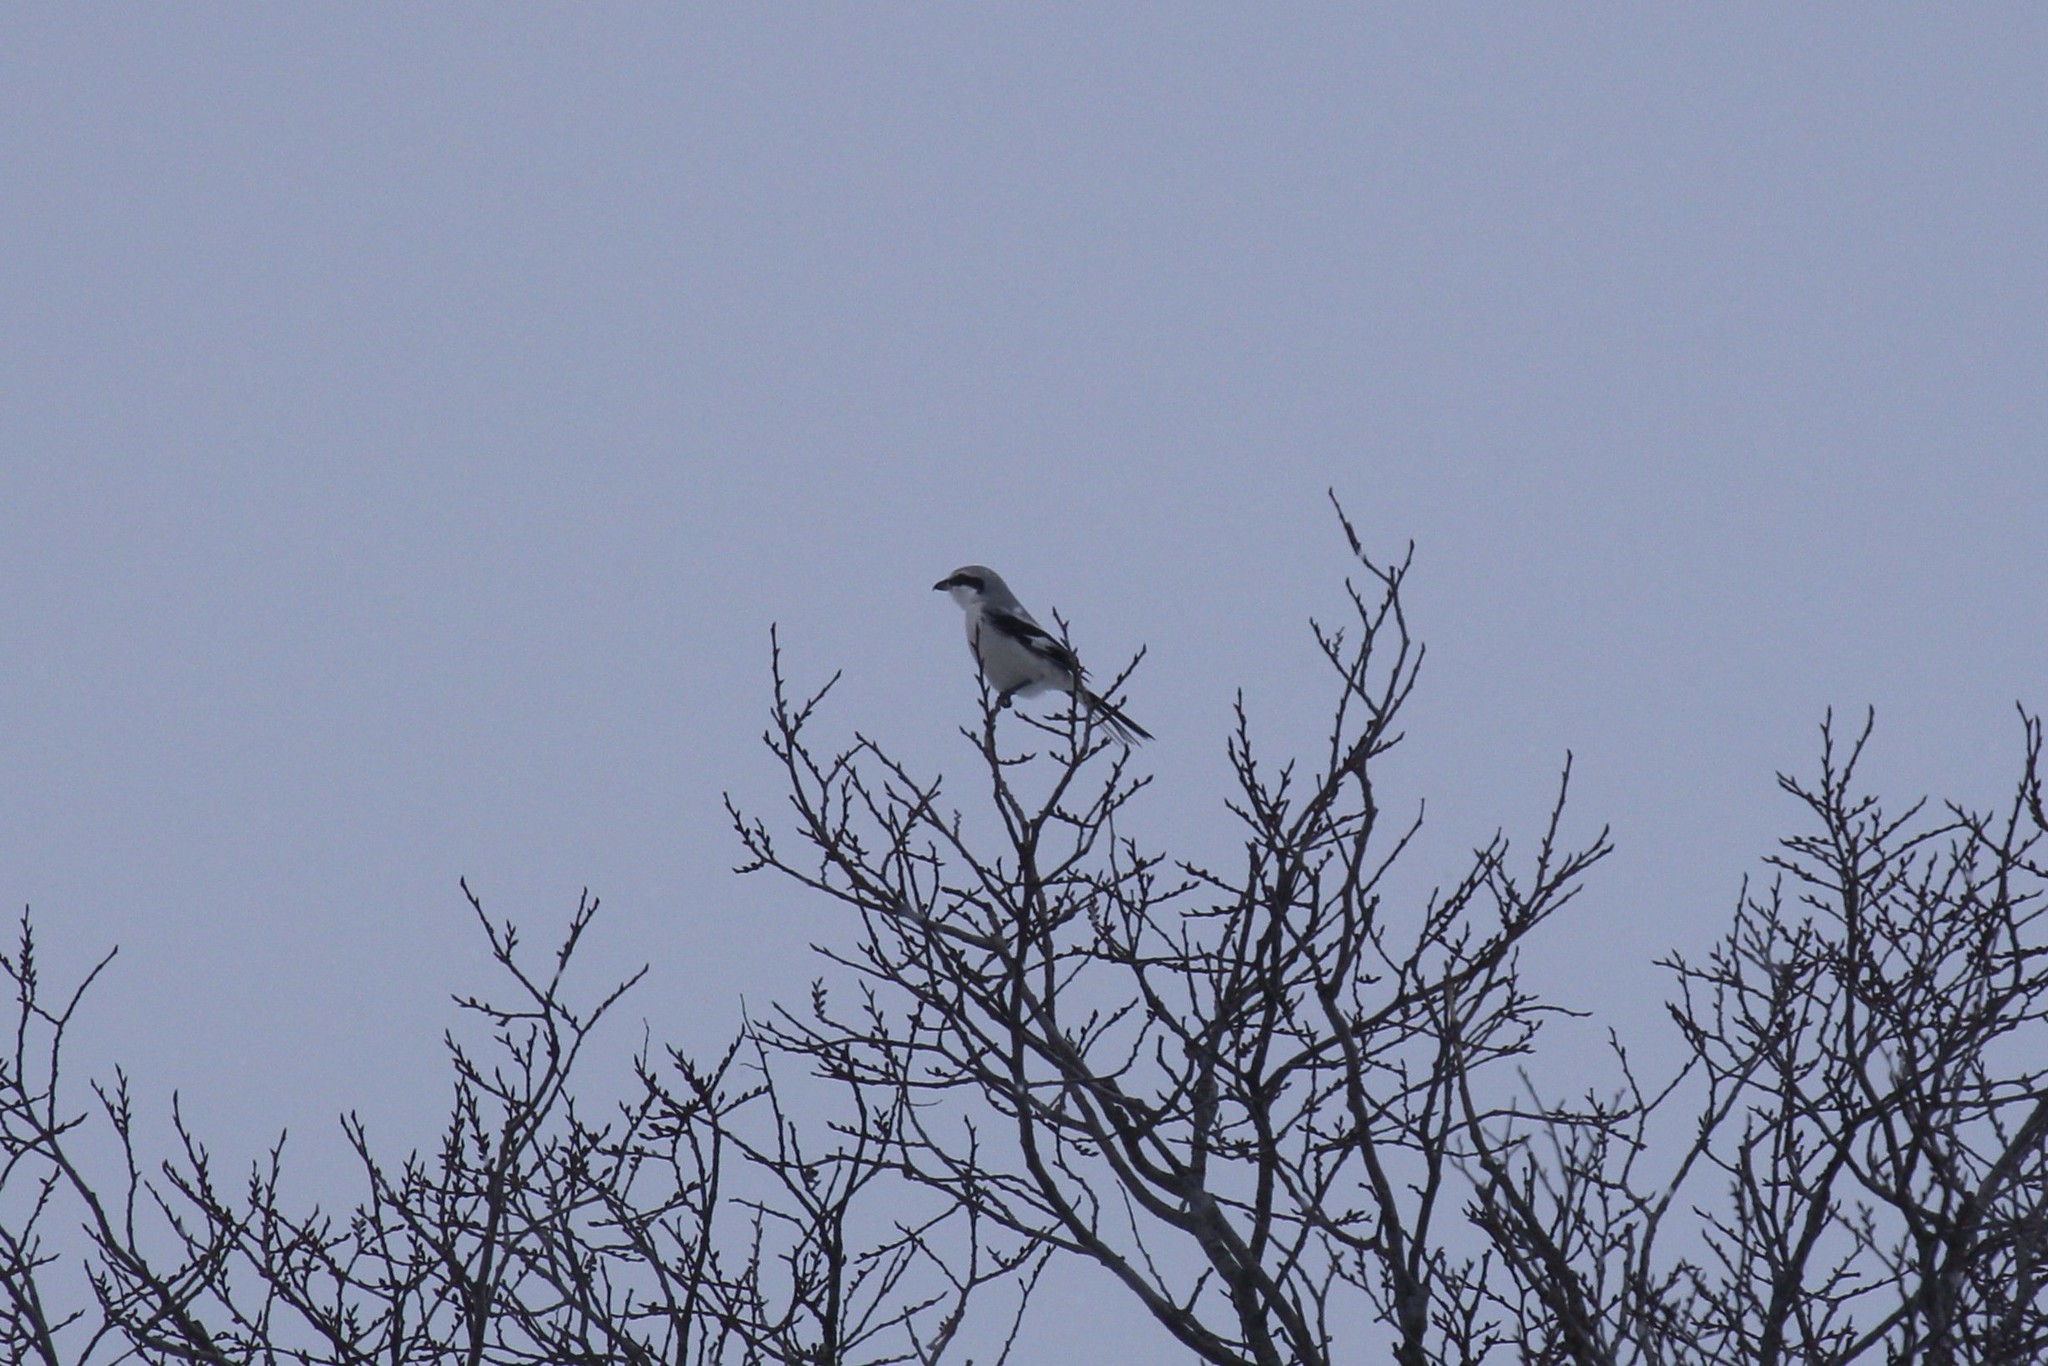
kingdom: Animalia
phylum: Chordata
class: Aves
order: Passeriformes
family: Laniidae
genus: Lanius
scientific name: Lanius excubitor
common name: Great grey shrike
